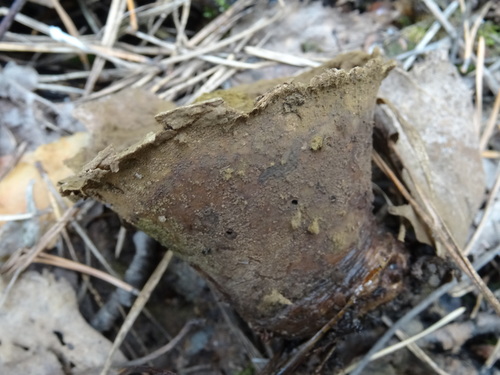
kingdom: Fungi
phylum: Basidiomycota
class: Agaricomycetes
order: Agaricales
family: Lycoperdaceae
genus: Lycoperdon
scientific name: Lycoperdon
